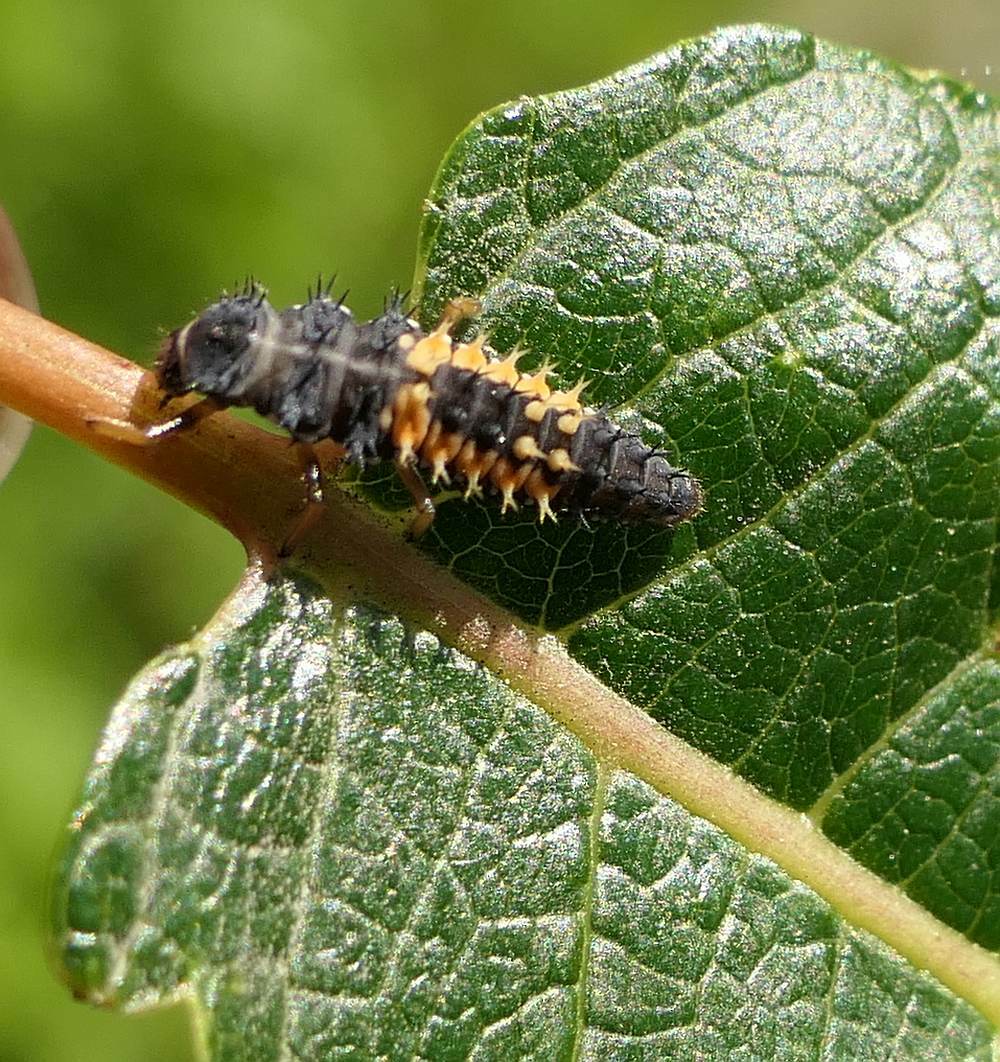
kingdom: Animalia
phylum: Arthropoda
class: Insecta
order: Coleoptera
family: Coccinellidae
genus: Harmonia
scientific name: Harmonia axyridis
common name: Harlequin ladybird
